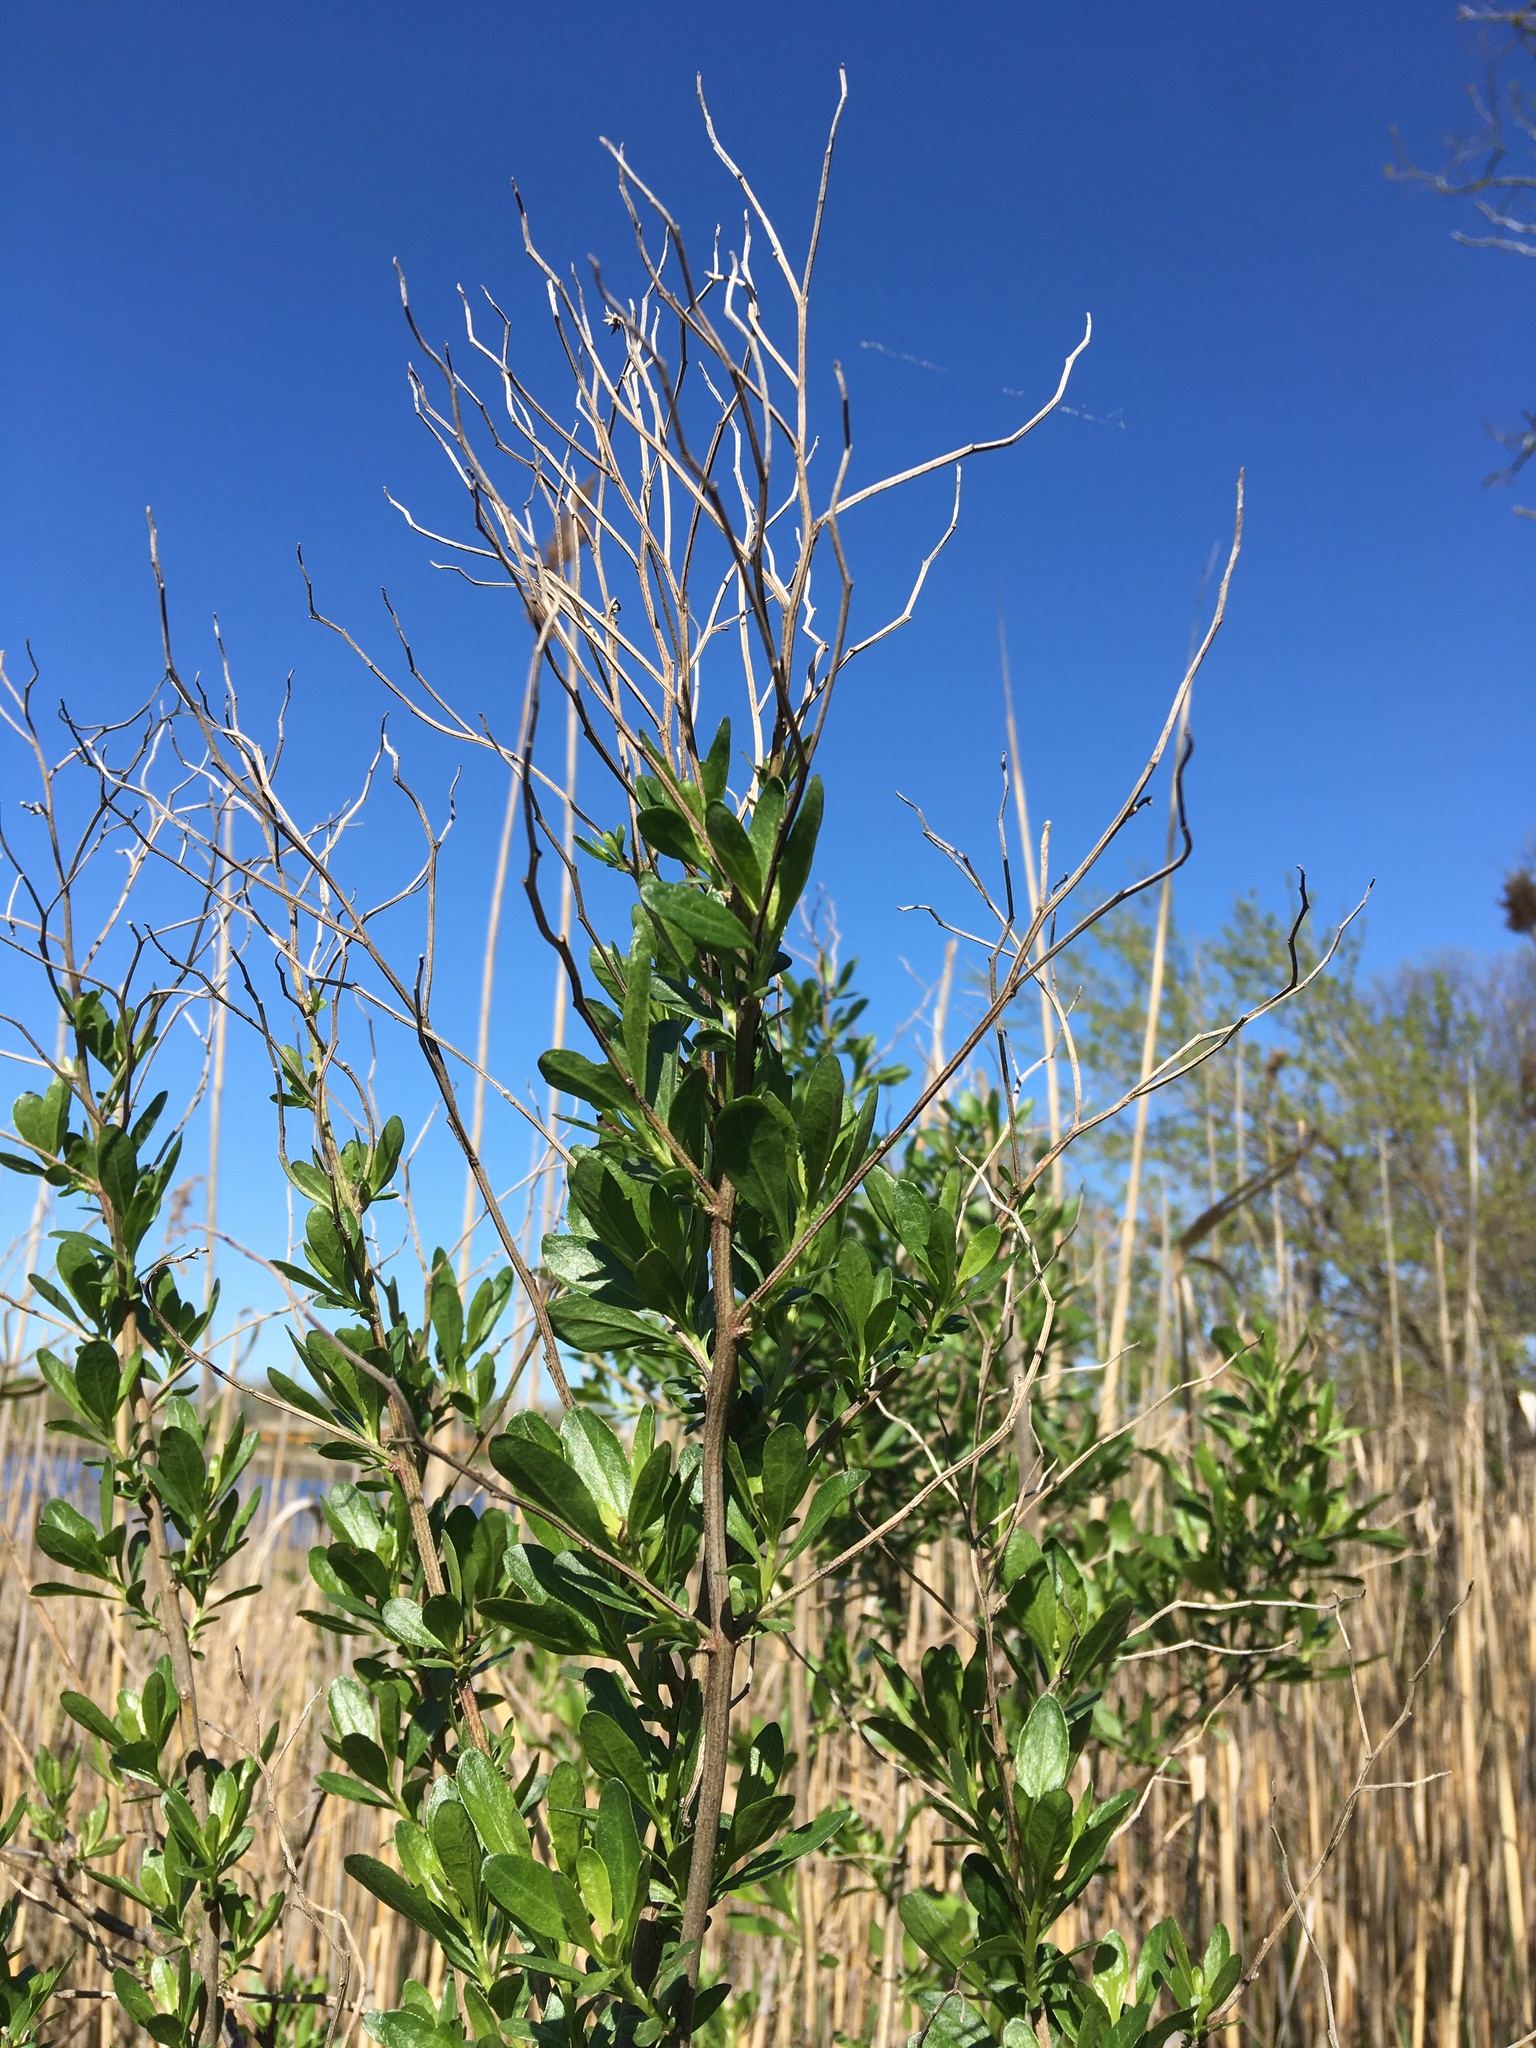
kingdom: Plantae
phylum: Tracheophyta
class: Magnoliopsida
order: Asterales
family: Asteraceae
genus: Baccharis
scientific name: Baccharis halimifolia
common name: Eastern baccharis
